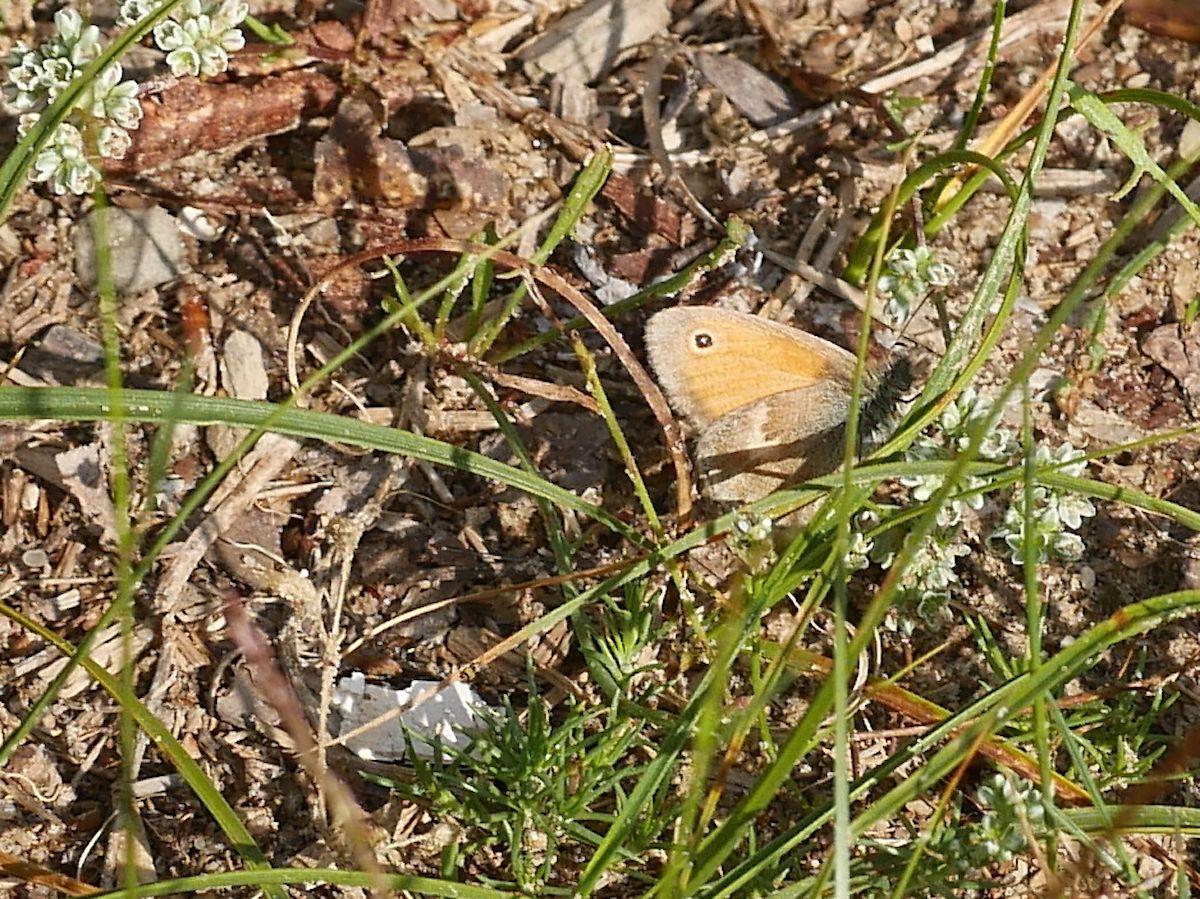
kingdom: Animalia
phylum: Arthropoda
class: Insecta
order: Lepidoptera
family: Nymphalidae
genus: Coenonympha
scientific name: Coenonympha pamphilus
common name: Small heath
